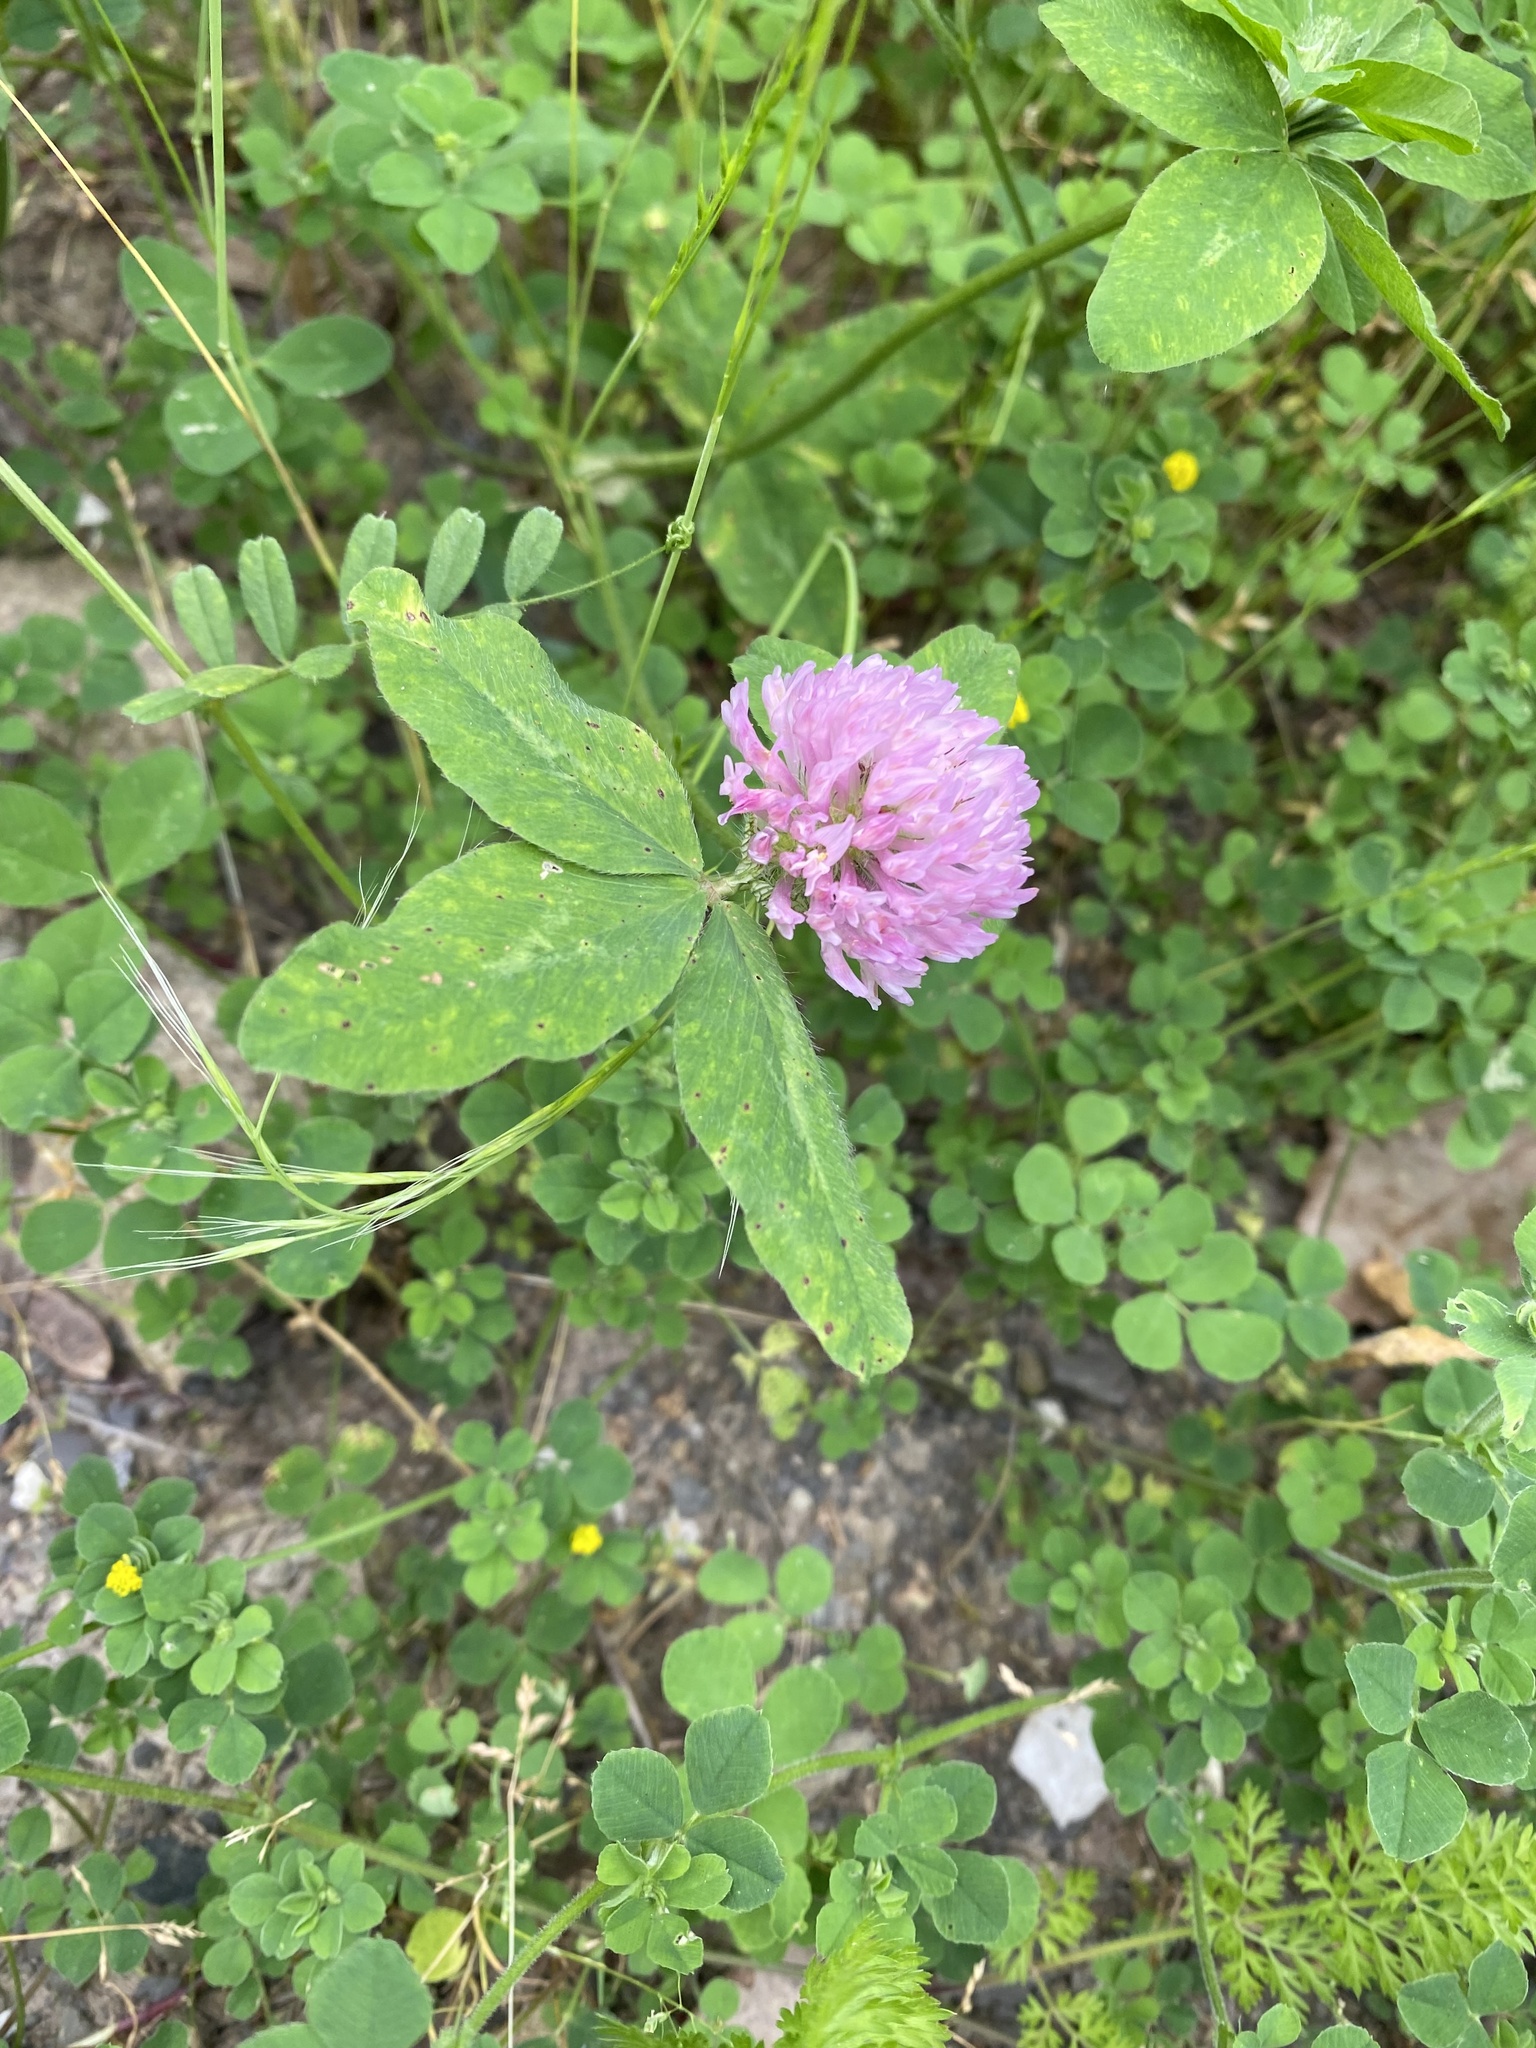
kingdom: Plantae
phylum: Tracheophyta
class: Magnoliopsida
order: Fabales
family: Fabaceae
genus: Trifolium
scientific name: Trifolium pratense
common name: Red clover
